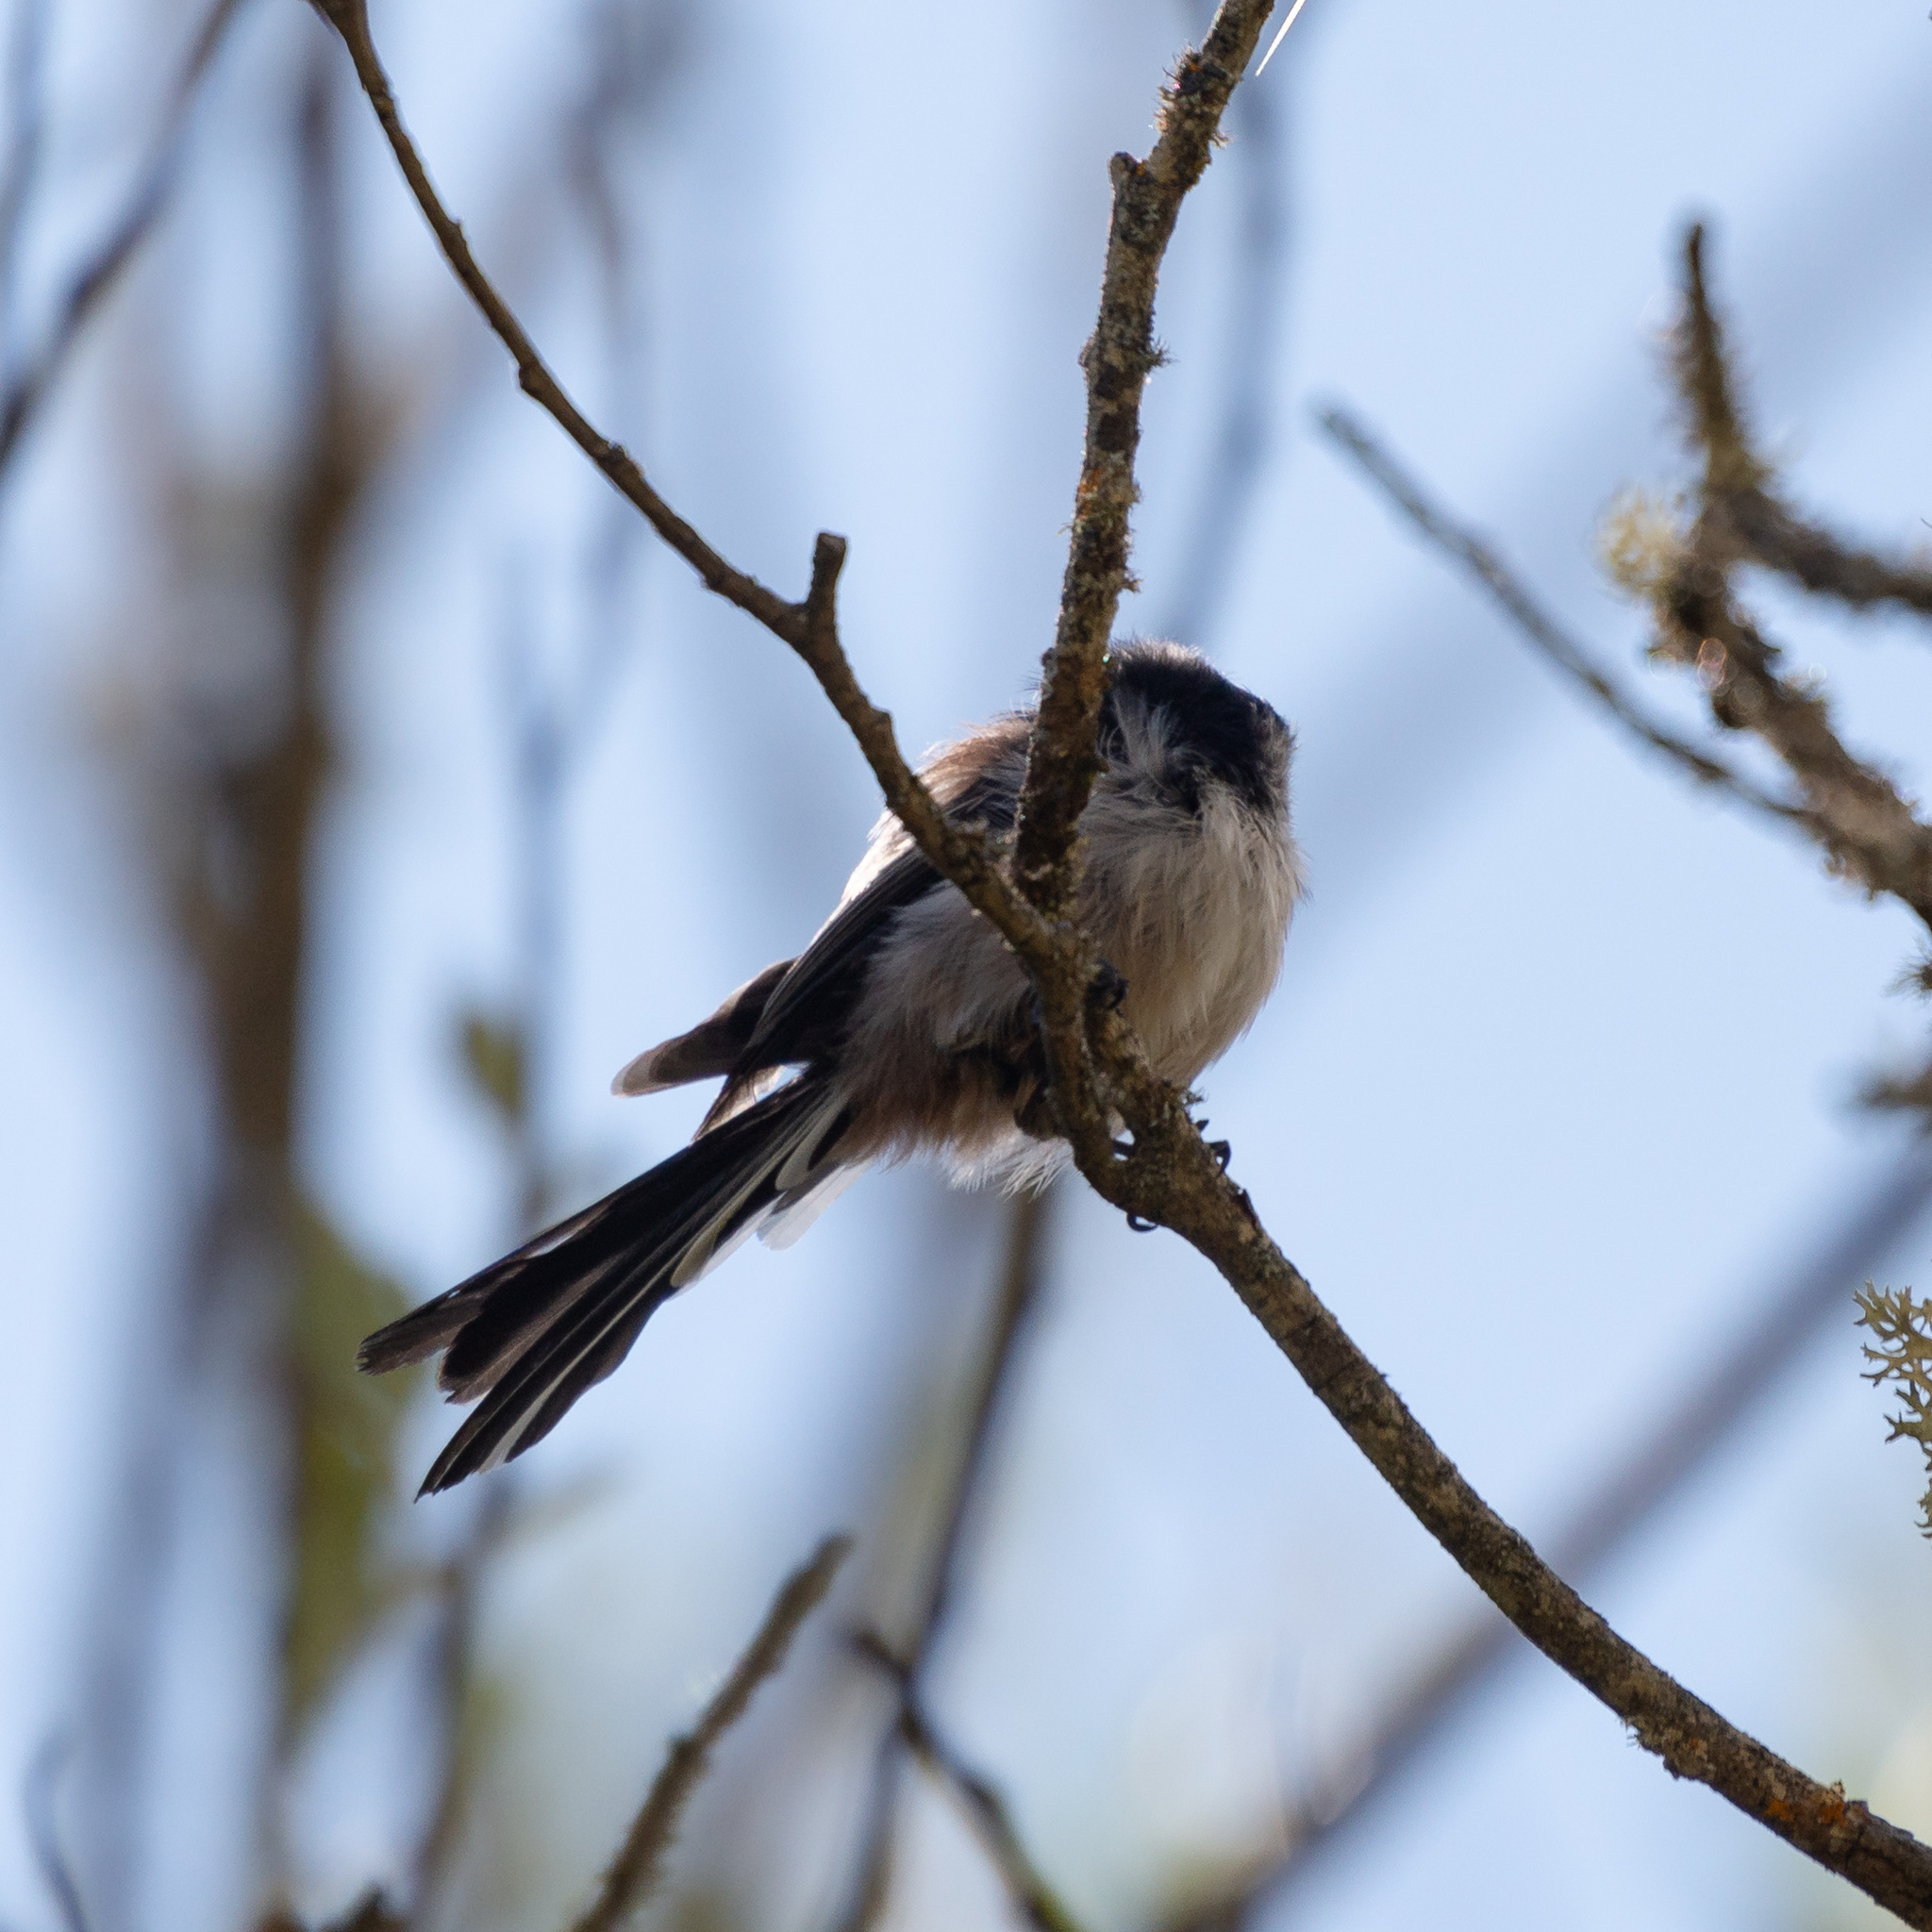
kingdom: Animalia
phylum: Chordata
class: Aves
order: Passeriformes
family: Aegithalidae
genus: Aegithalos
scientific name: Aegithalos caudatus
